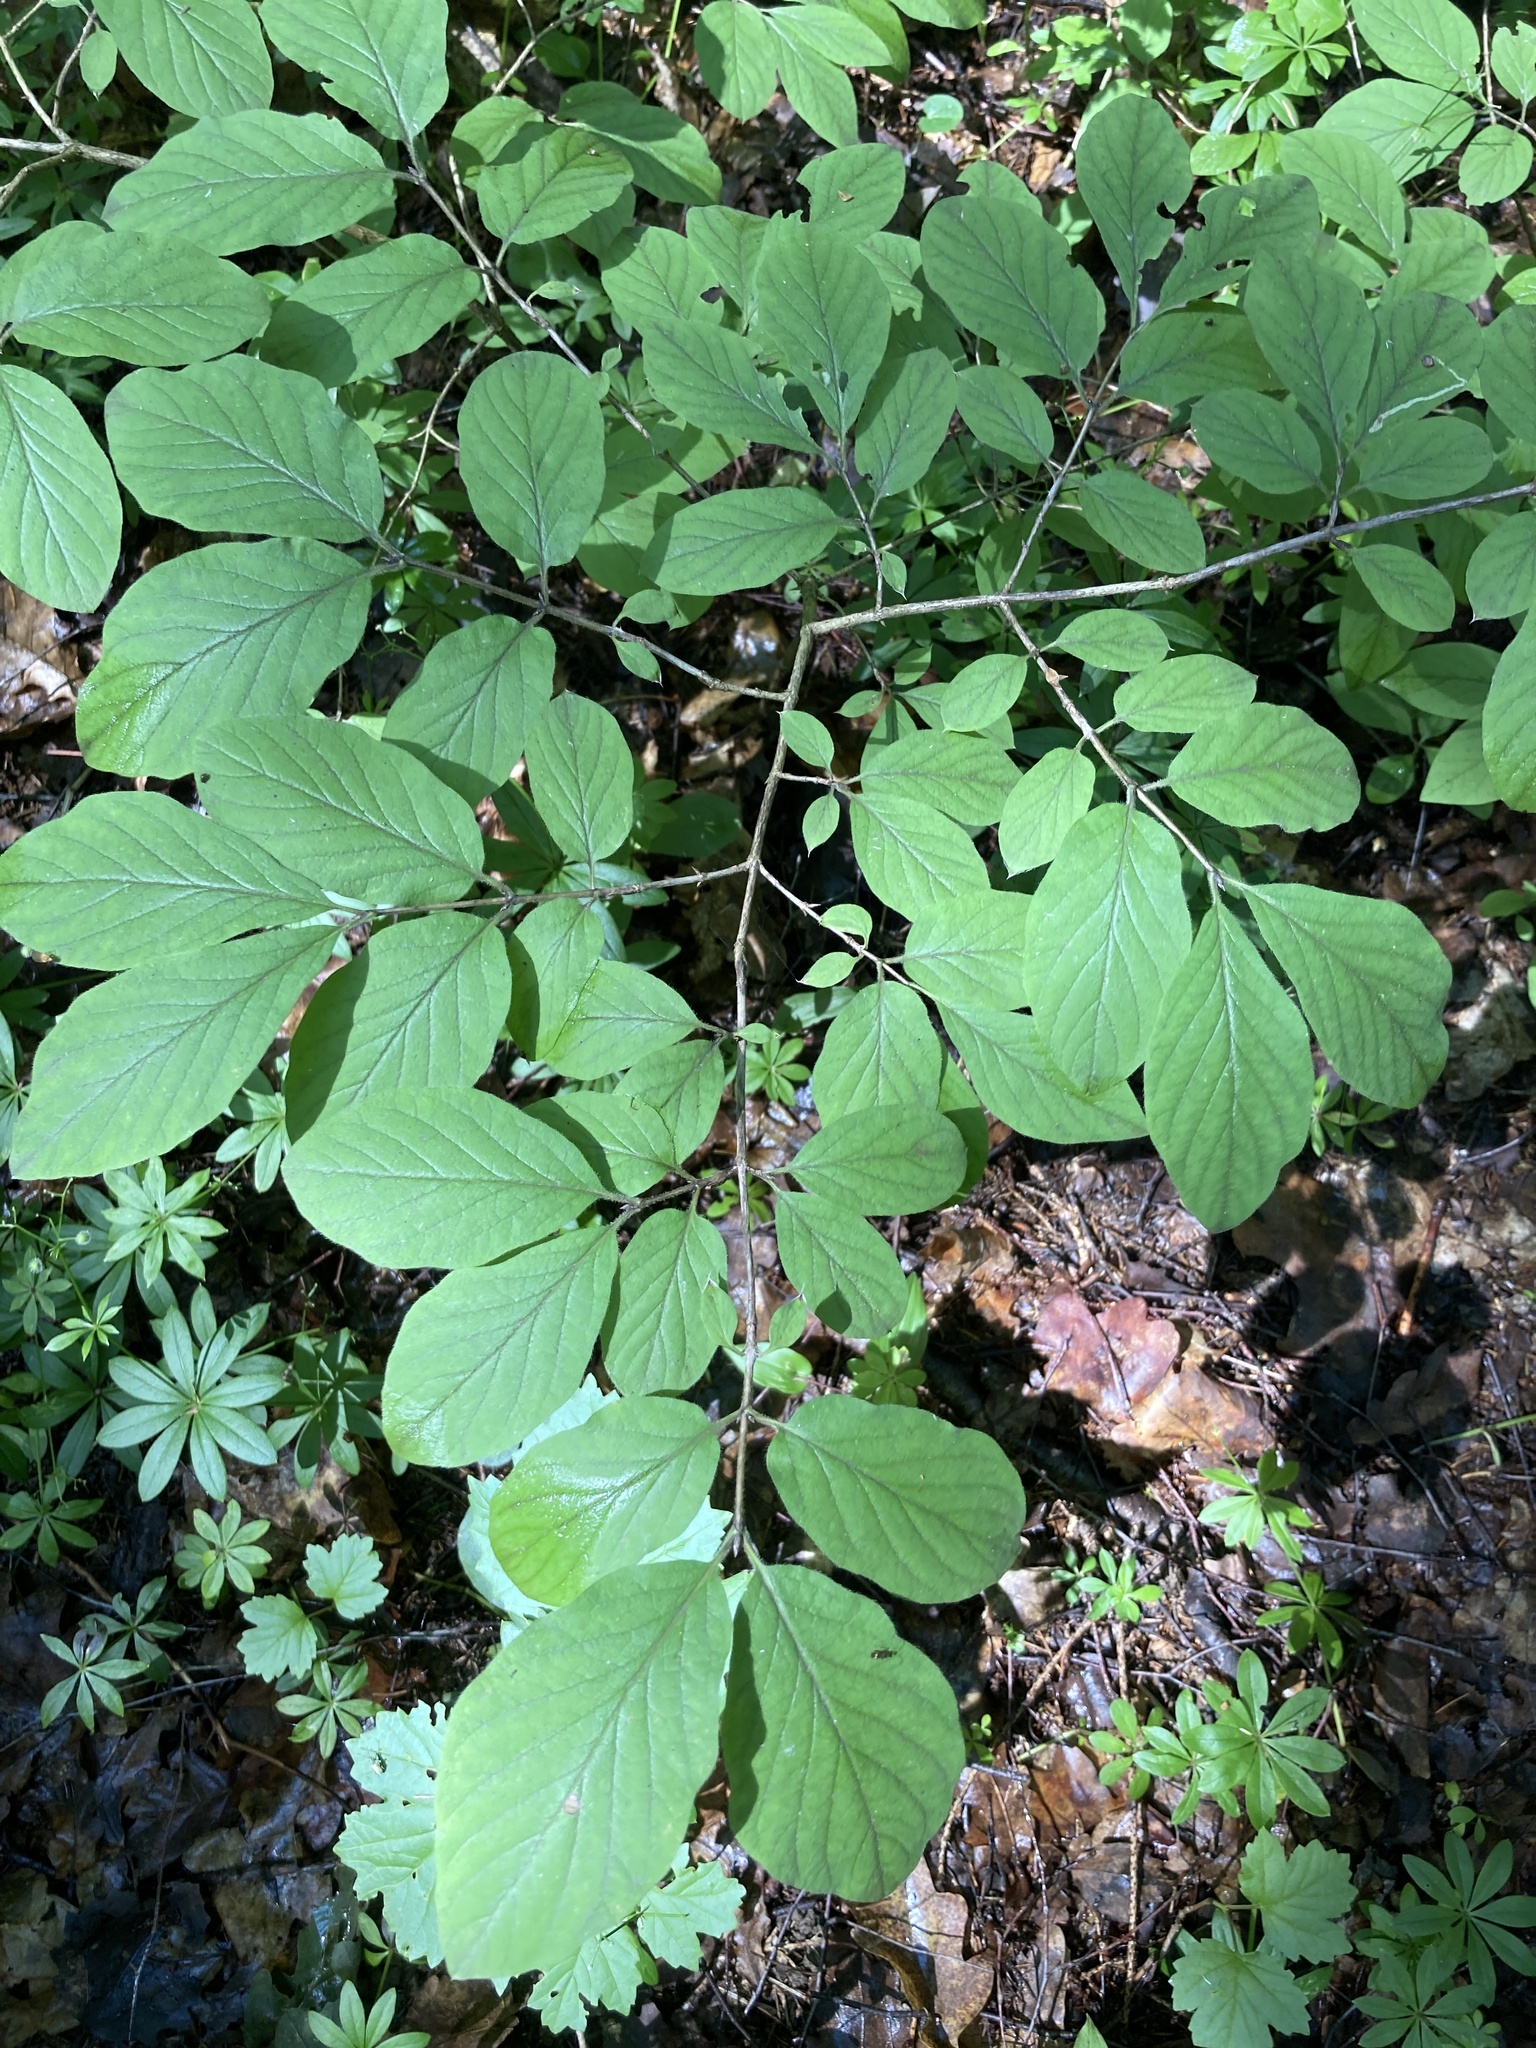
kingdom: Plantae
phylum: Tracheophyta
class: Magnoliopsida
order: Dipsacales
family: Caprifoliaceae
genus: Lonicera
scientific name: Lonicera xylosteum
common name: Fly honeysuckle
